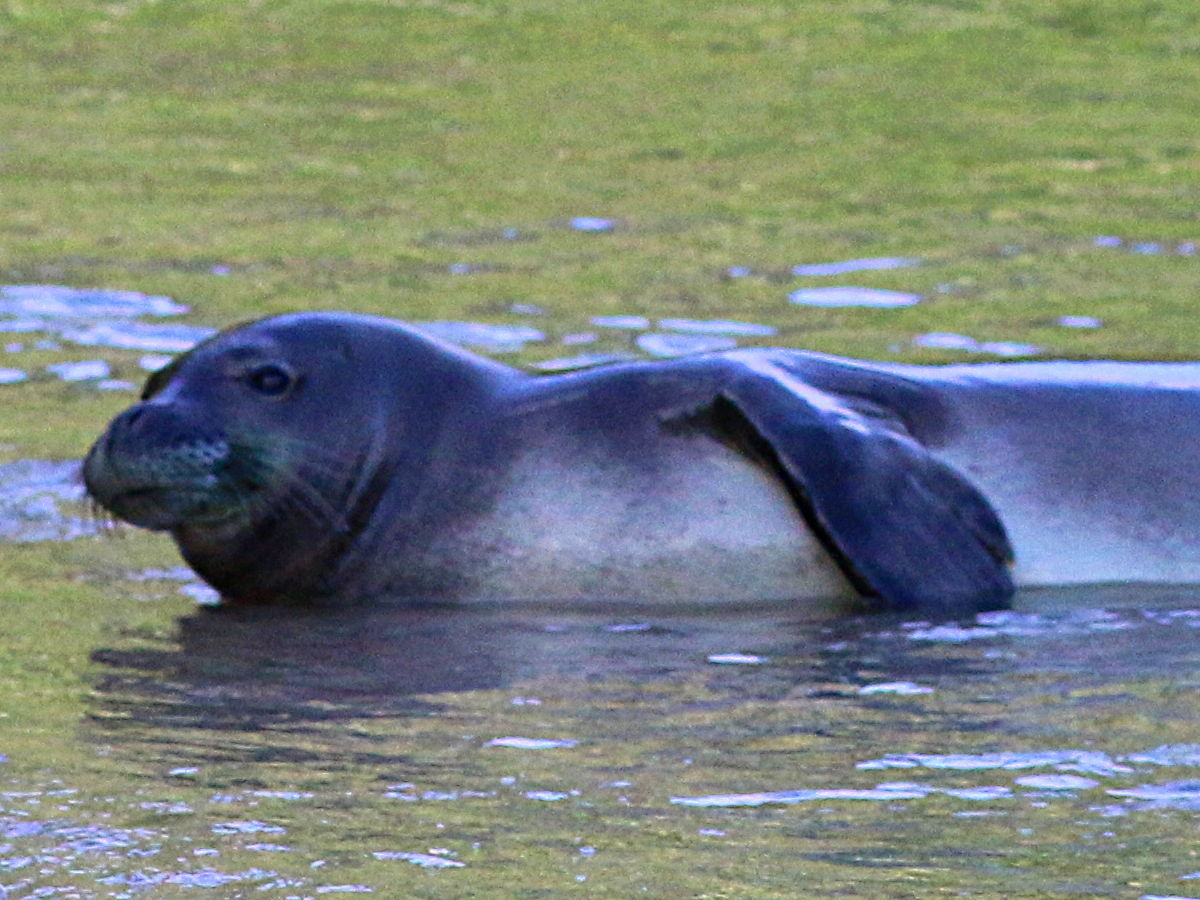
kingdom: Animalia
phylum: Chordata
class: Mammalia
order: Carnivora
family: Phocidae
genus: Neomonachus
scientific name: Neomonachus schauinslandi
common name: Hawaiian monk seal
